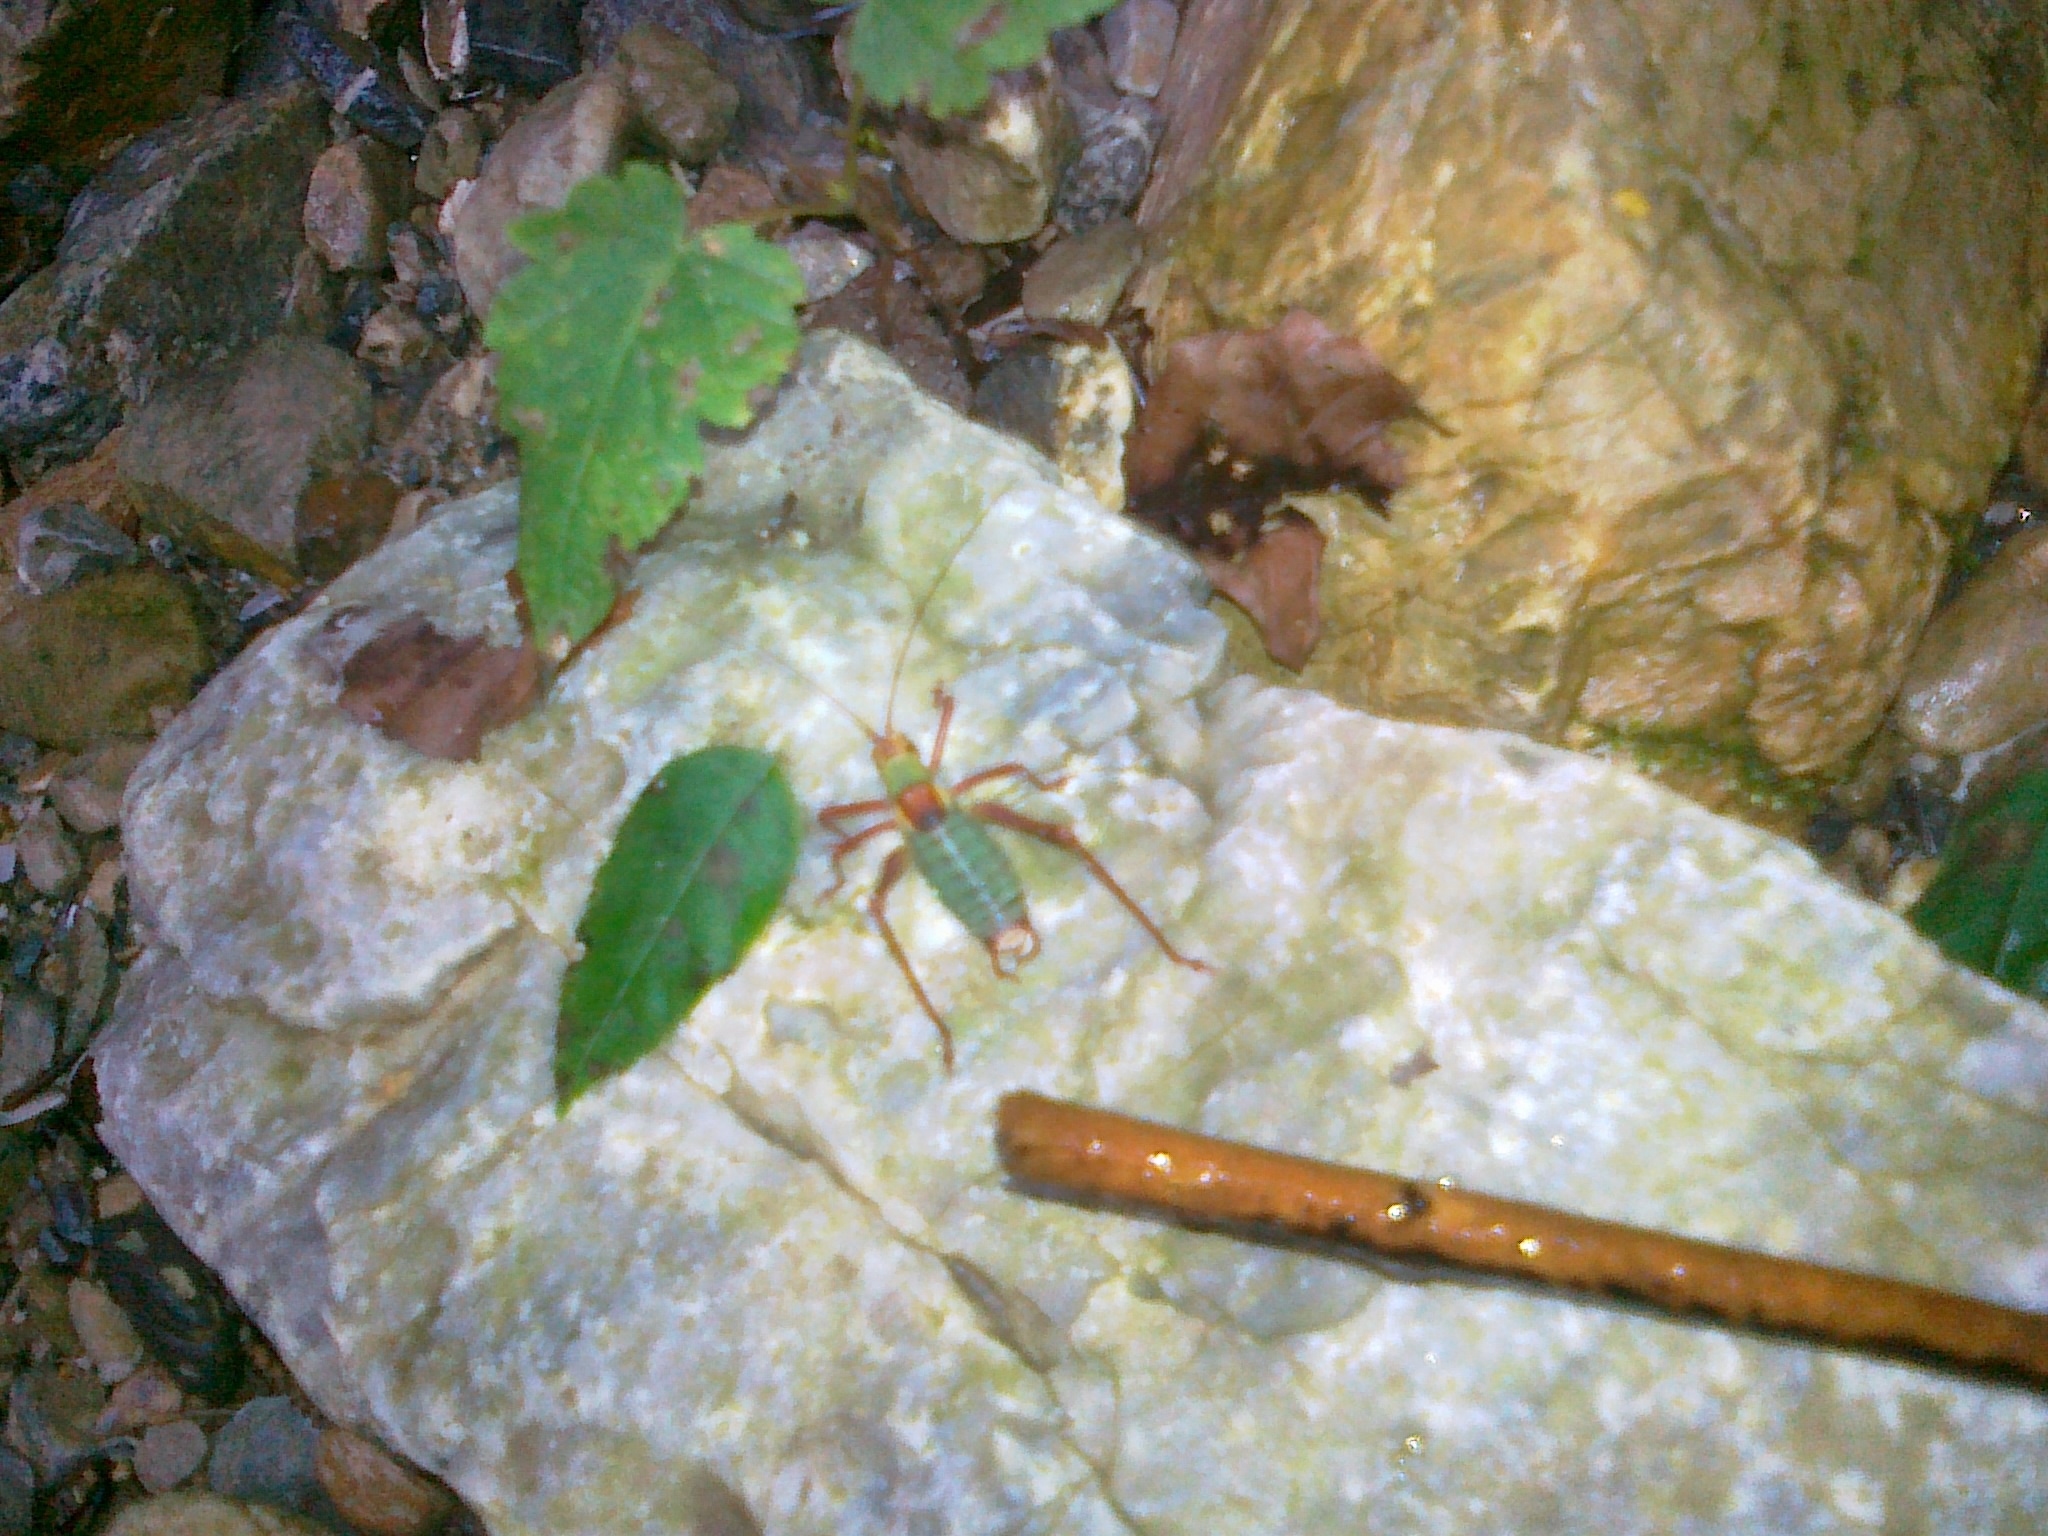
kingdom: Animalia
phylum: Arthropoda
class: Insecta
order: Orthoptera
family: Tettigoniidae
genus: Barbitistes
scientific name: Barbitistes serricauda
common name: Saw-tailed bush-cricket
